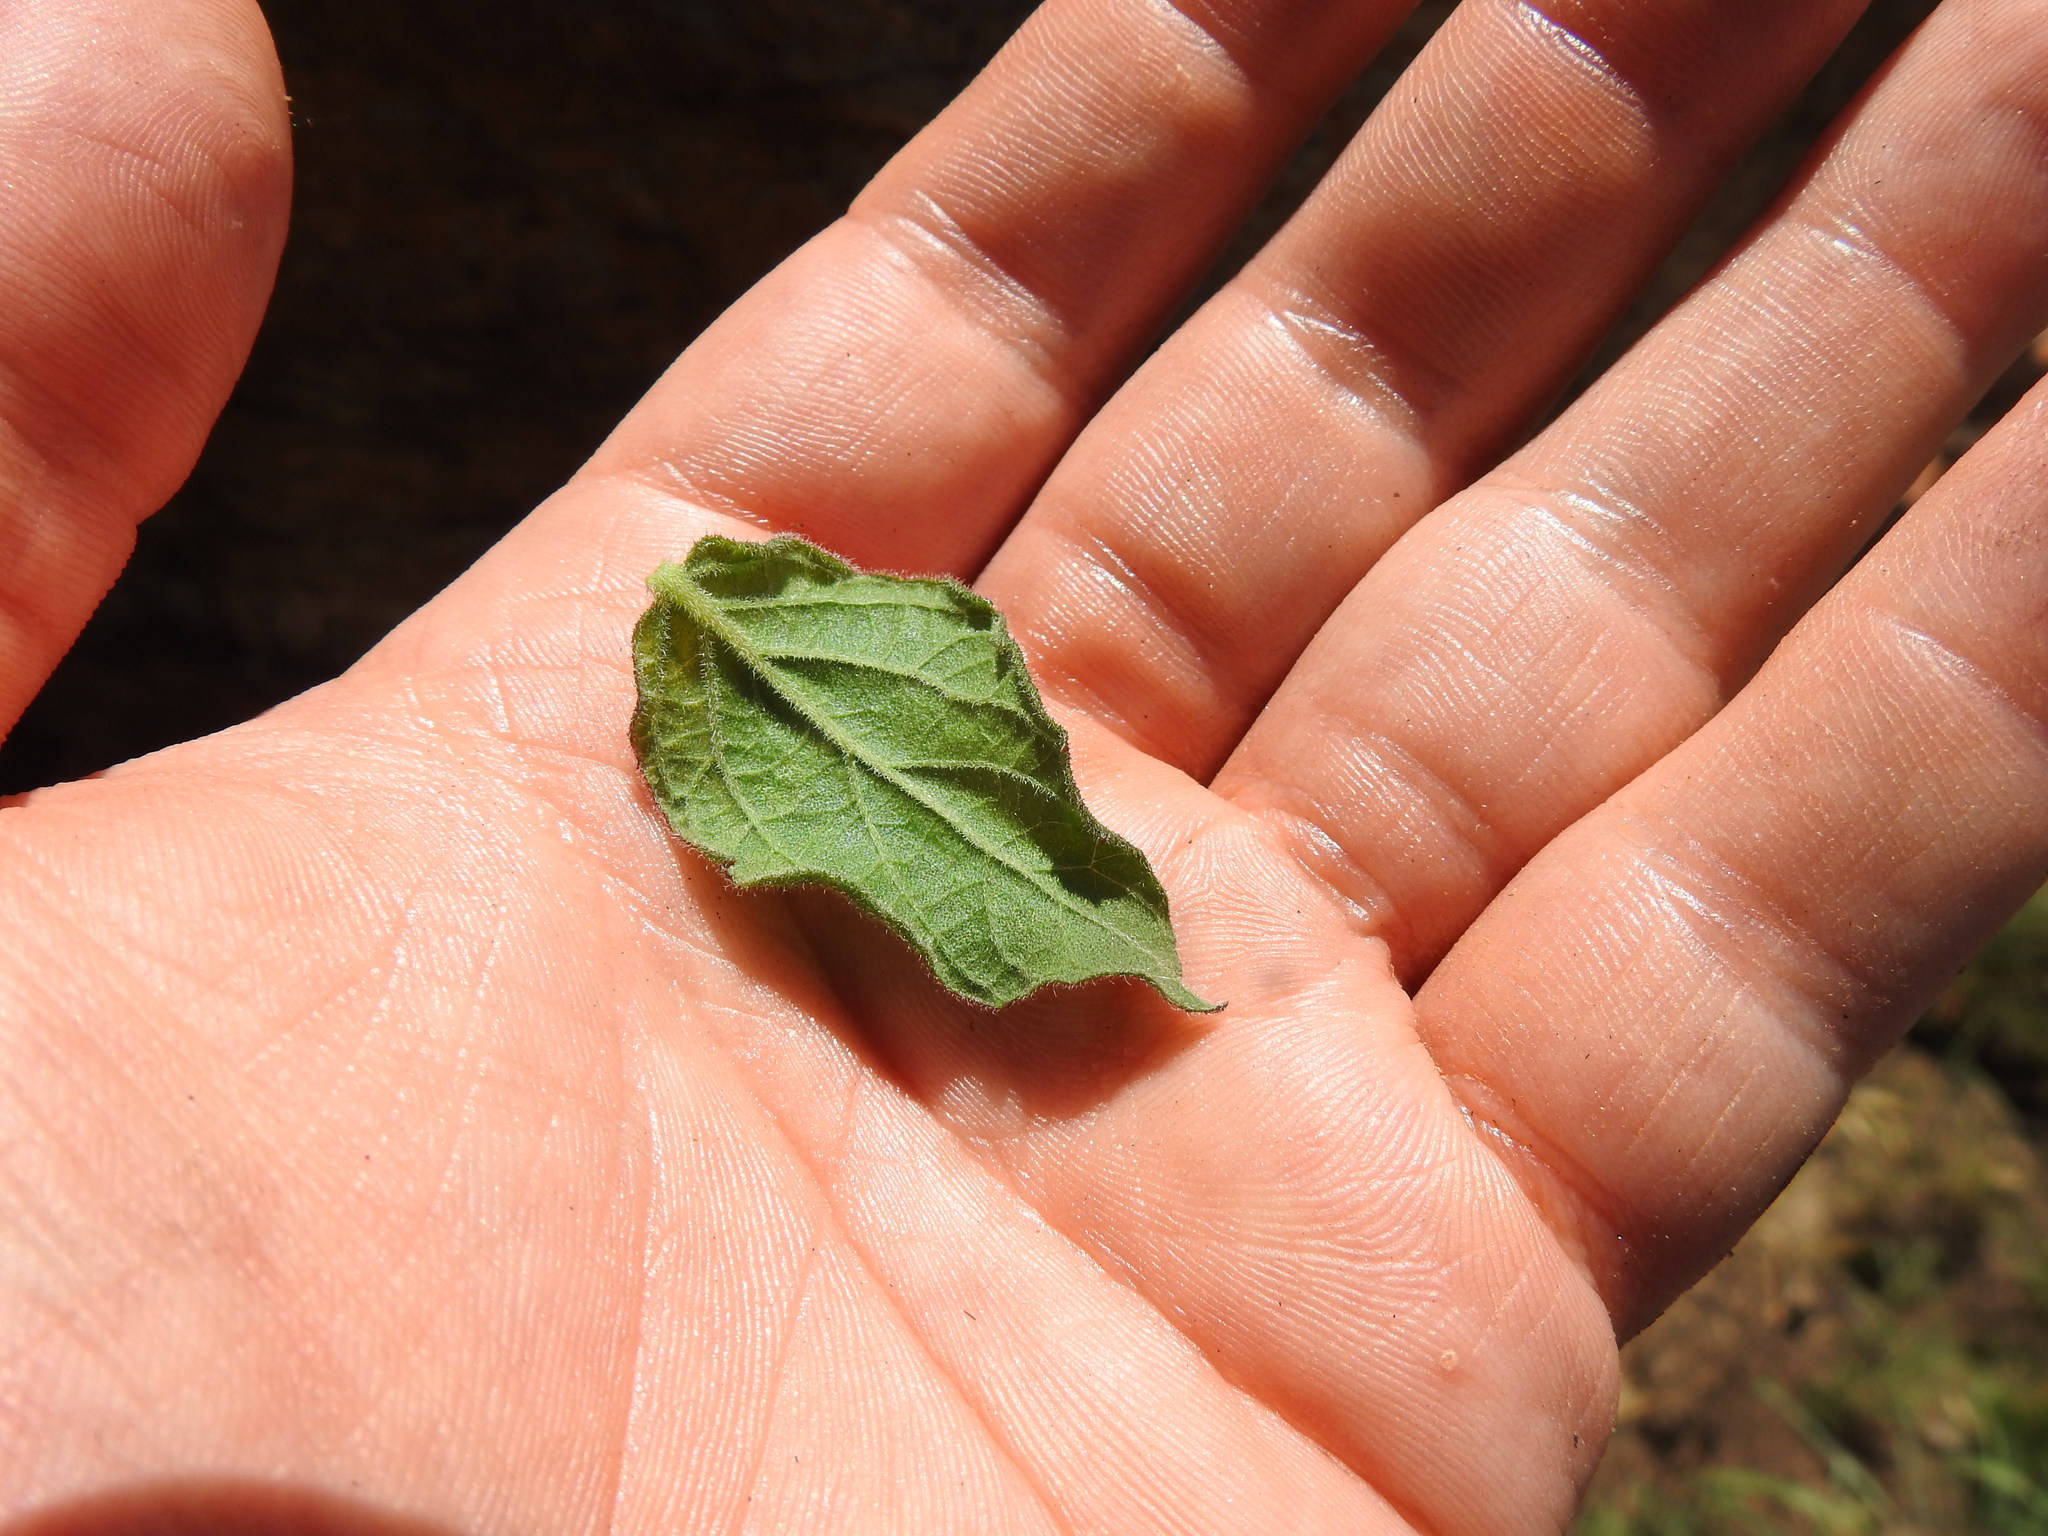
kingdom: Plantae
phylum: Tracheophyta
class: Magnoliopsida
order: Asterales
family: Asteraceae
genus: Hilliardiella
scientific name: Hilliardiella sutherlandii
